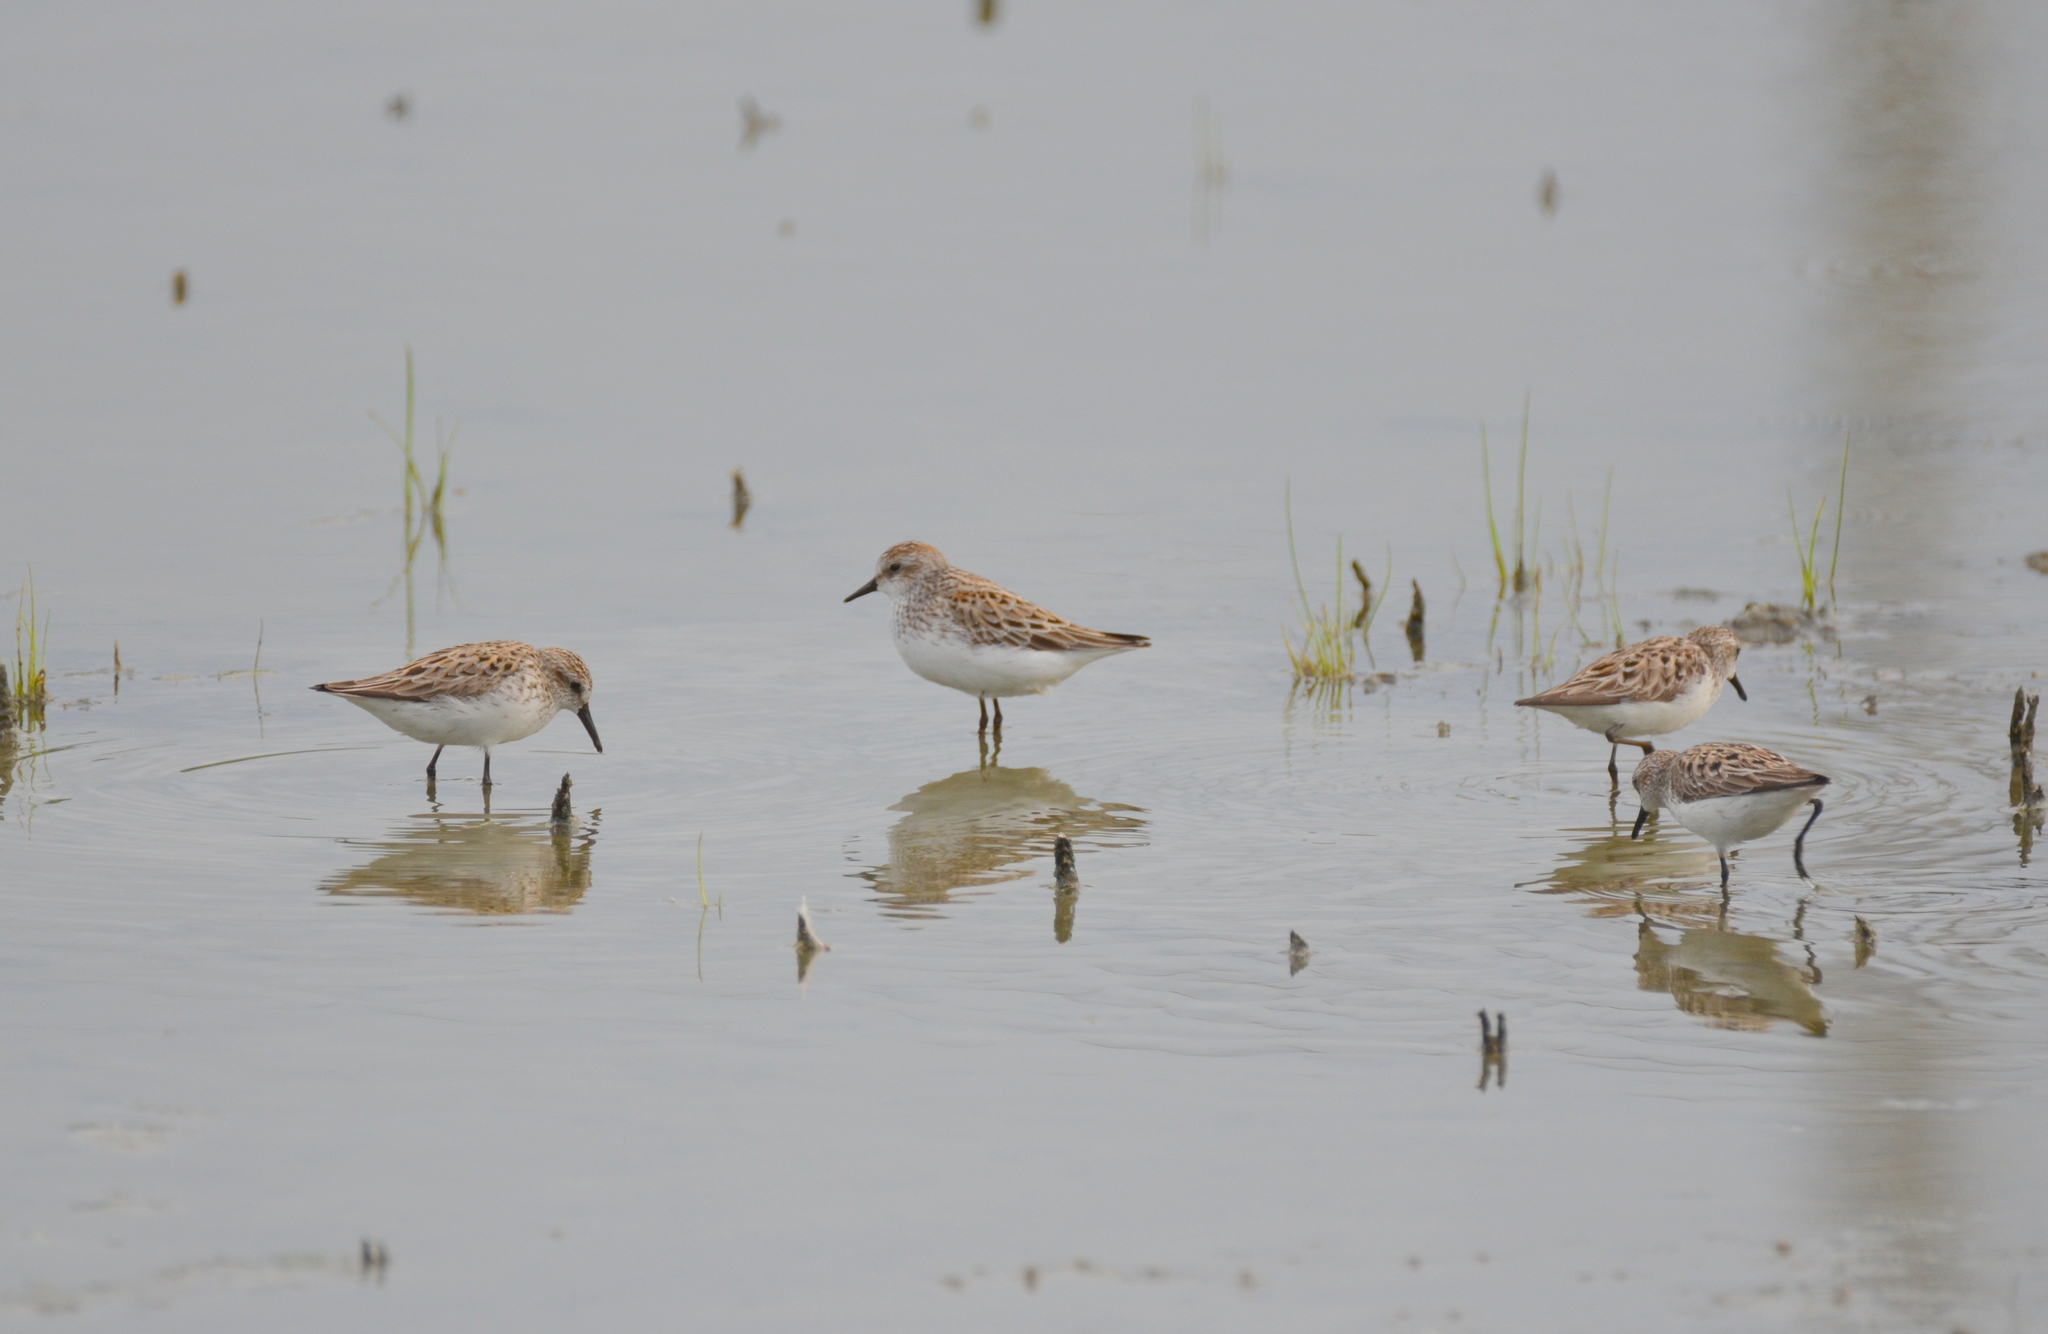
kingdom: Animalia
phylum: Chordata
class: Aves
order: Charadriiformes
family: Scolopacidae
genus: Calidris
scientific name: Calidris pusilla
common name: Semipalmated sandpiper
